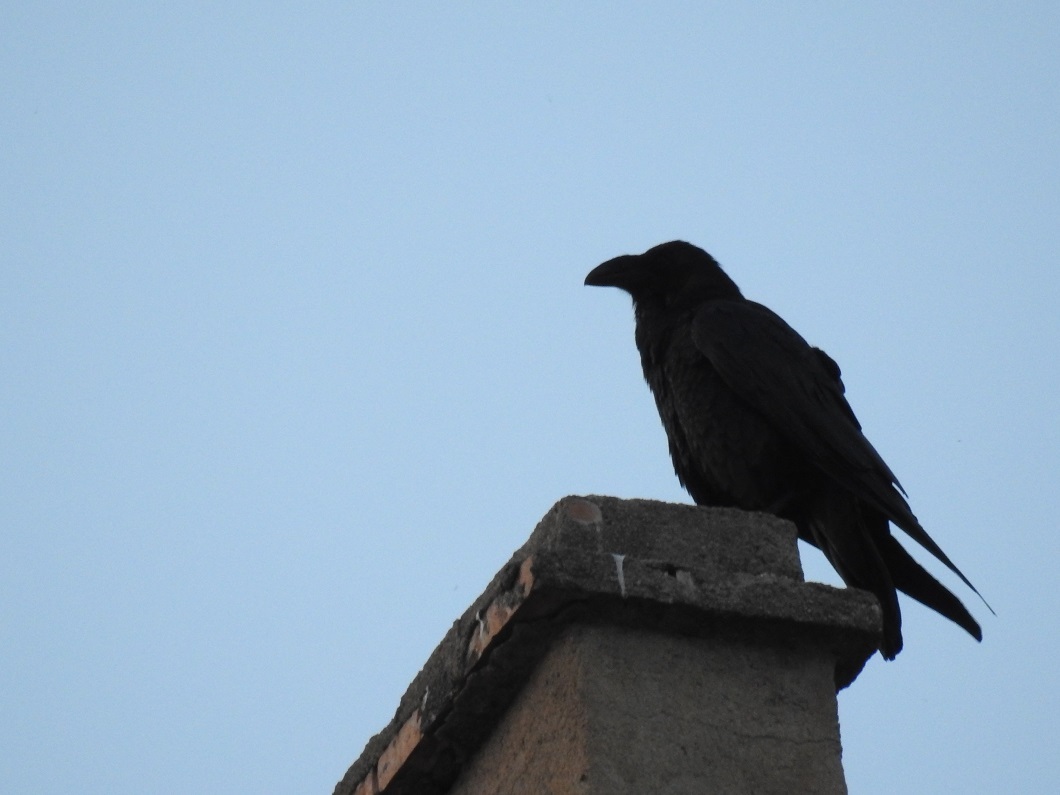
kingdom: Animalia
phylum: Chordata
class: Aves
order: Passeriformes
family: Corvidae
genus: Corvus
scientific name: Corvus corax
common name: Common raven
